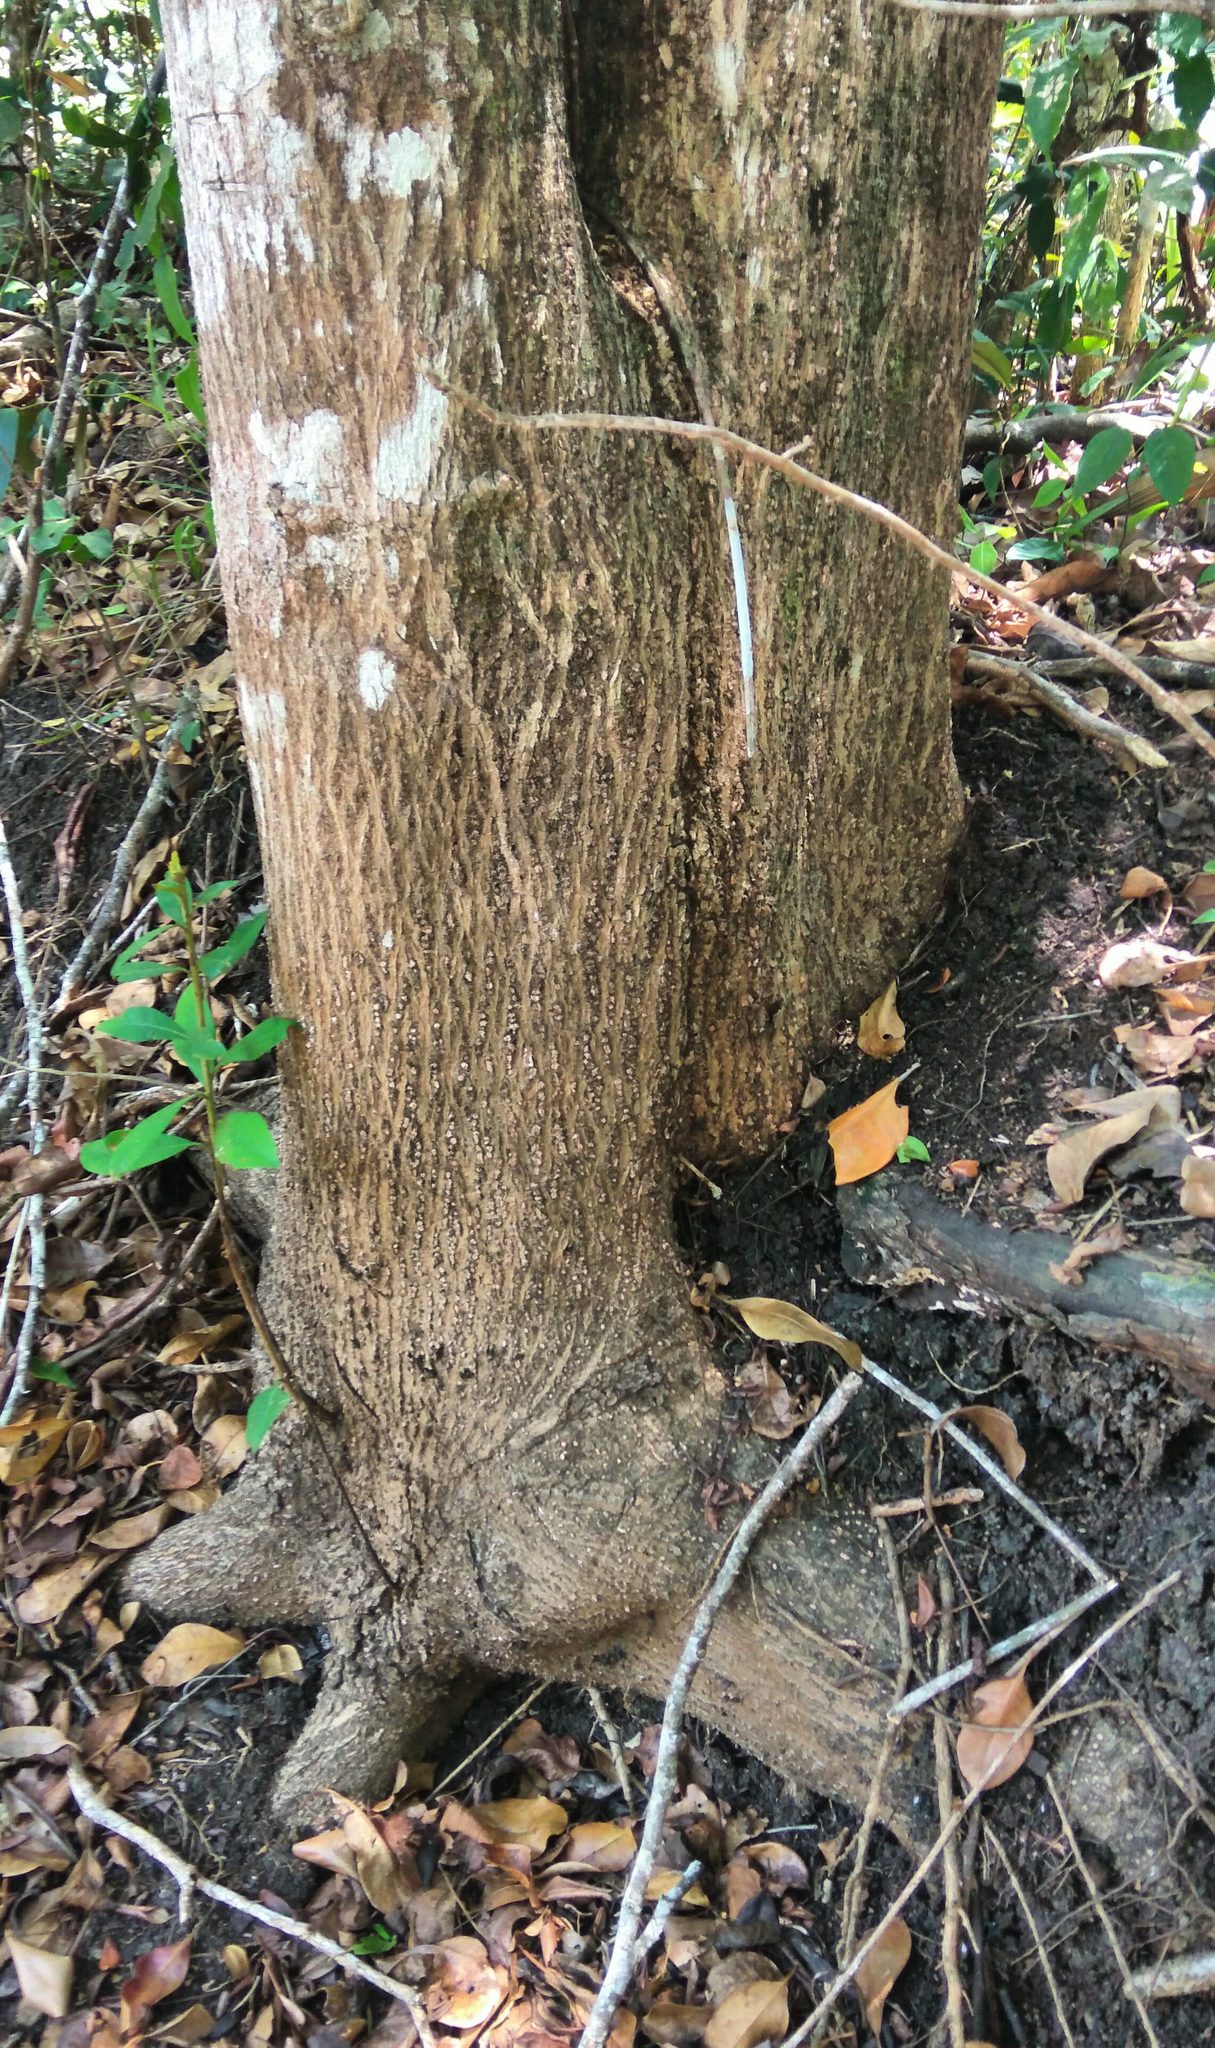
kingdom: Plantae
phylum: Tracheophyta
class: Magnoliopsida
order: Myrtales
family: Combretaceae
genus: Terminalia
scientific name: Terminalia buceras
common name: Black-olive
